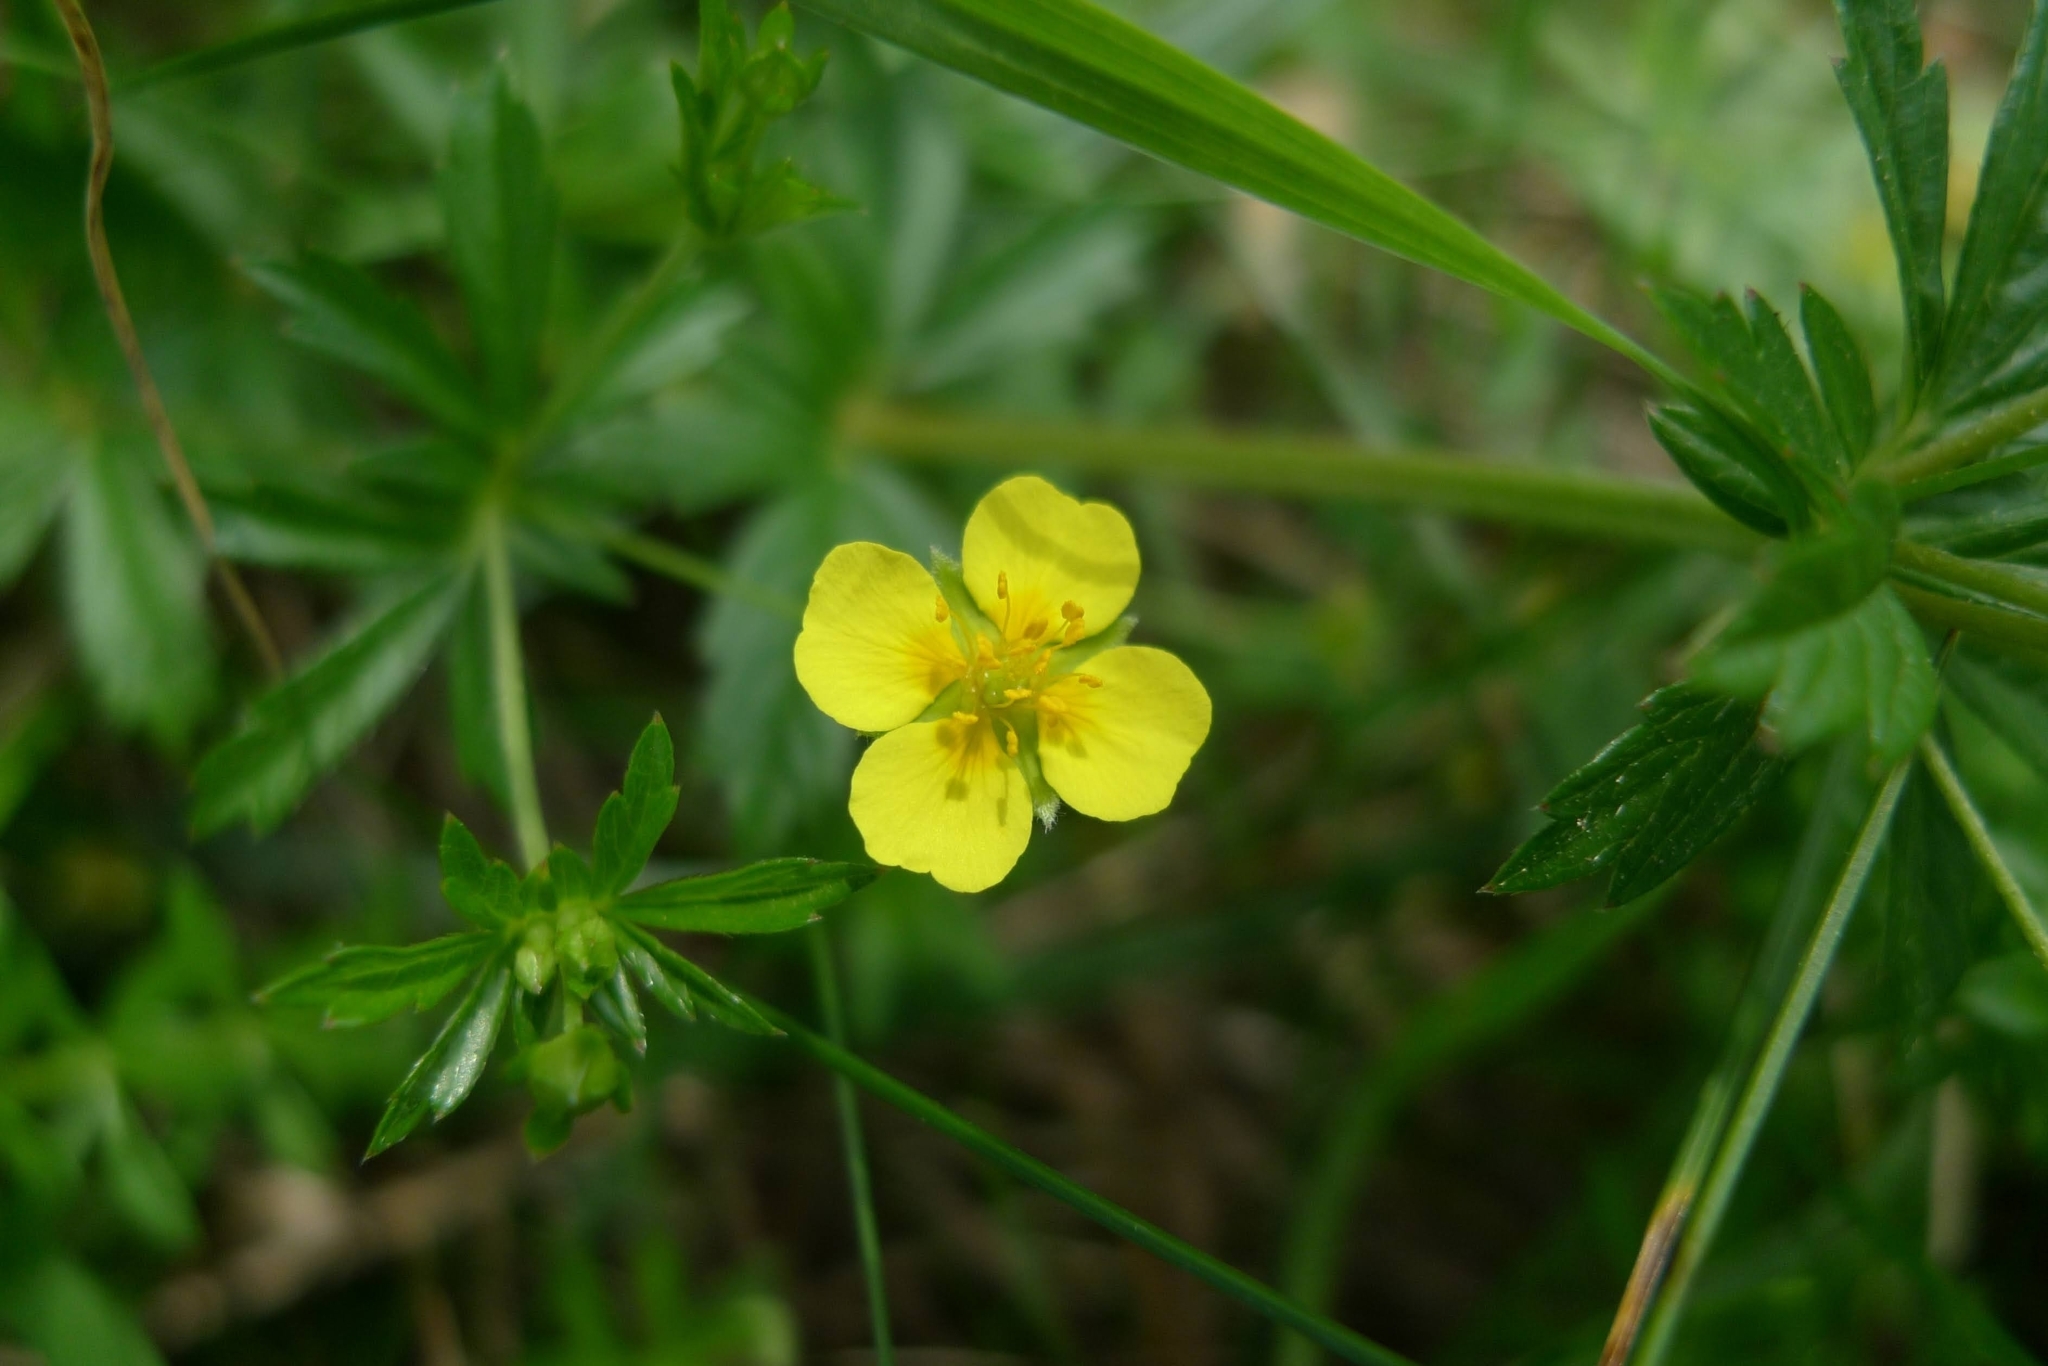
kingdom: Plantae
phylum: Tracheophyta
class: Magnoliopsida
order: Rosales
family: Rosaceae
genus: Potentilla
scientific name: Potentilla erecta
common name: Tormentil
